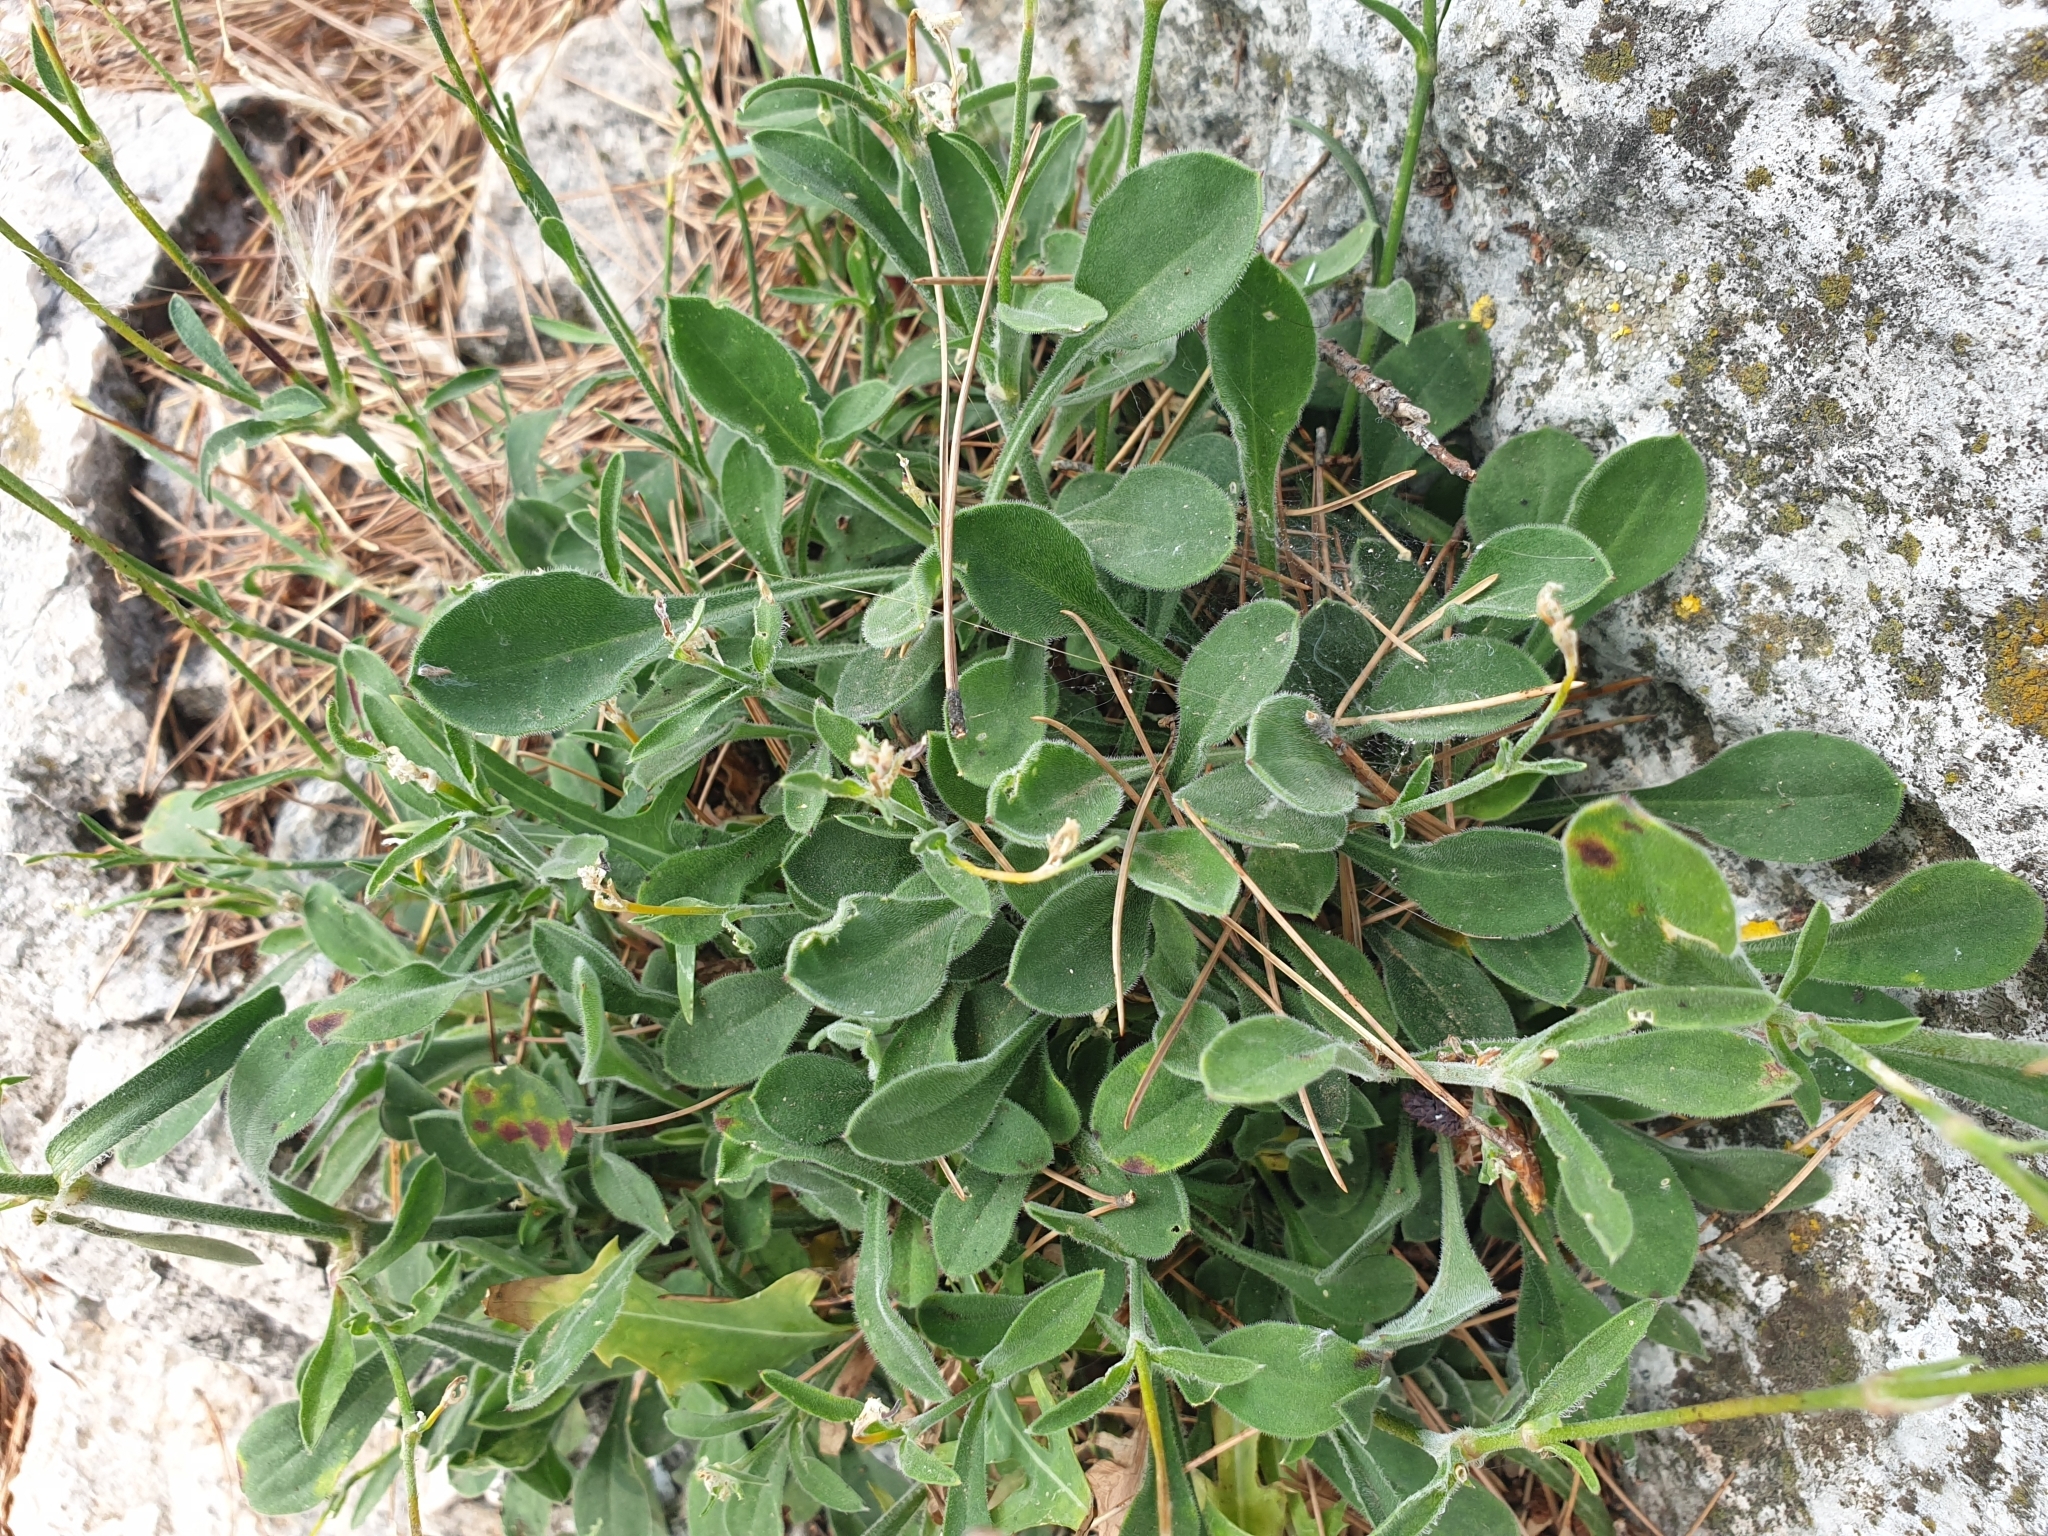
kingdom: Plantae
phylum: Tracheophyta
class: Magnoliopsida
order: Caryophyllales
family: Caryophyllaceae
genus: Silene
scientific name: Silene italica
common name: Italian catchfly
